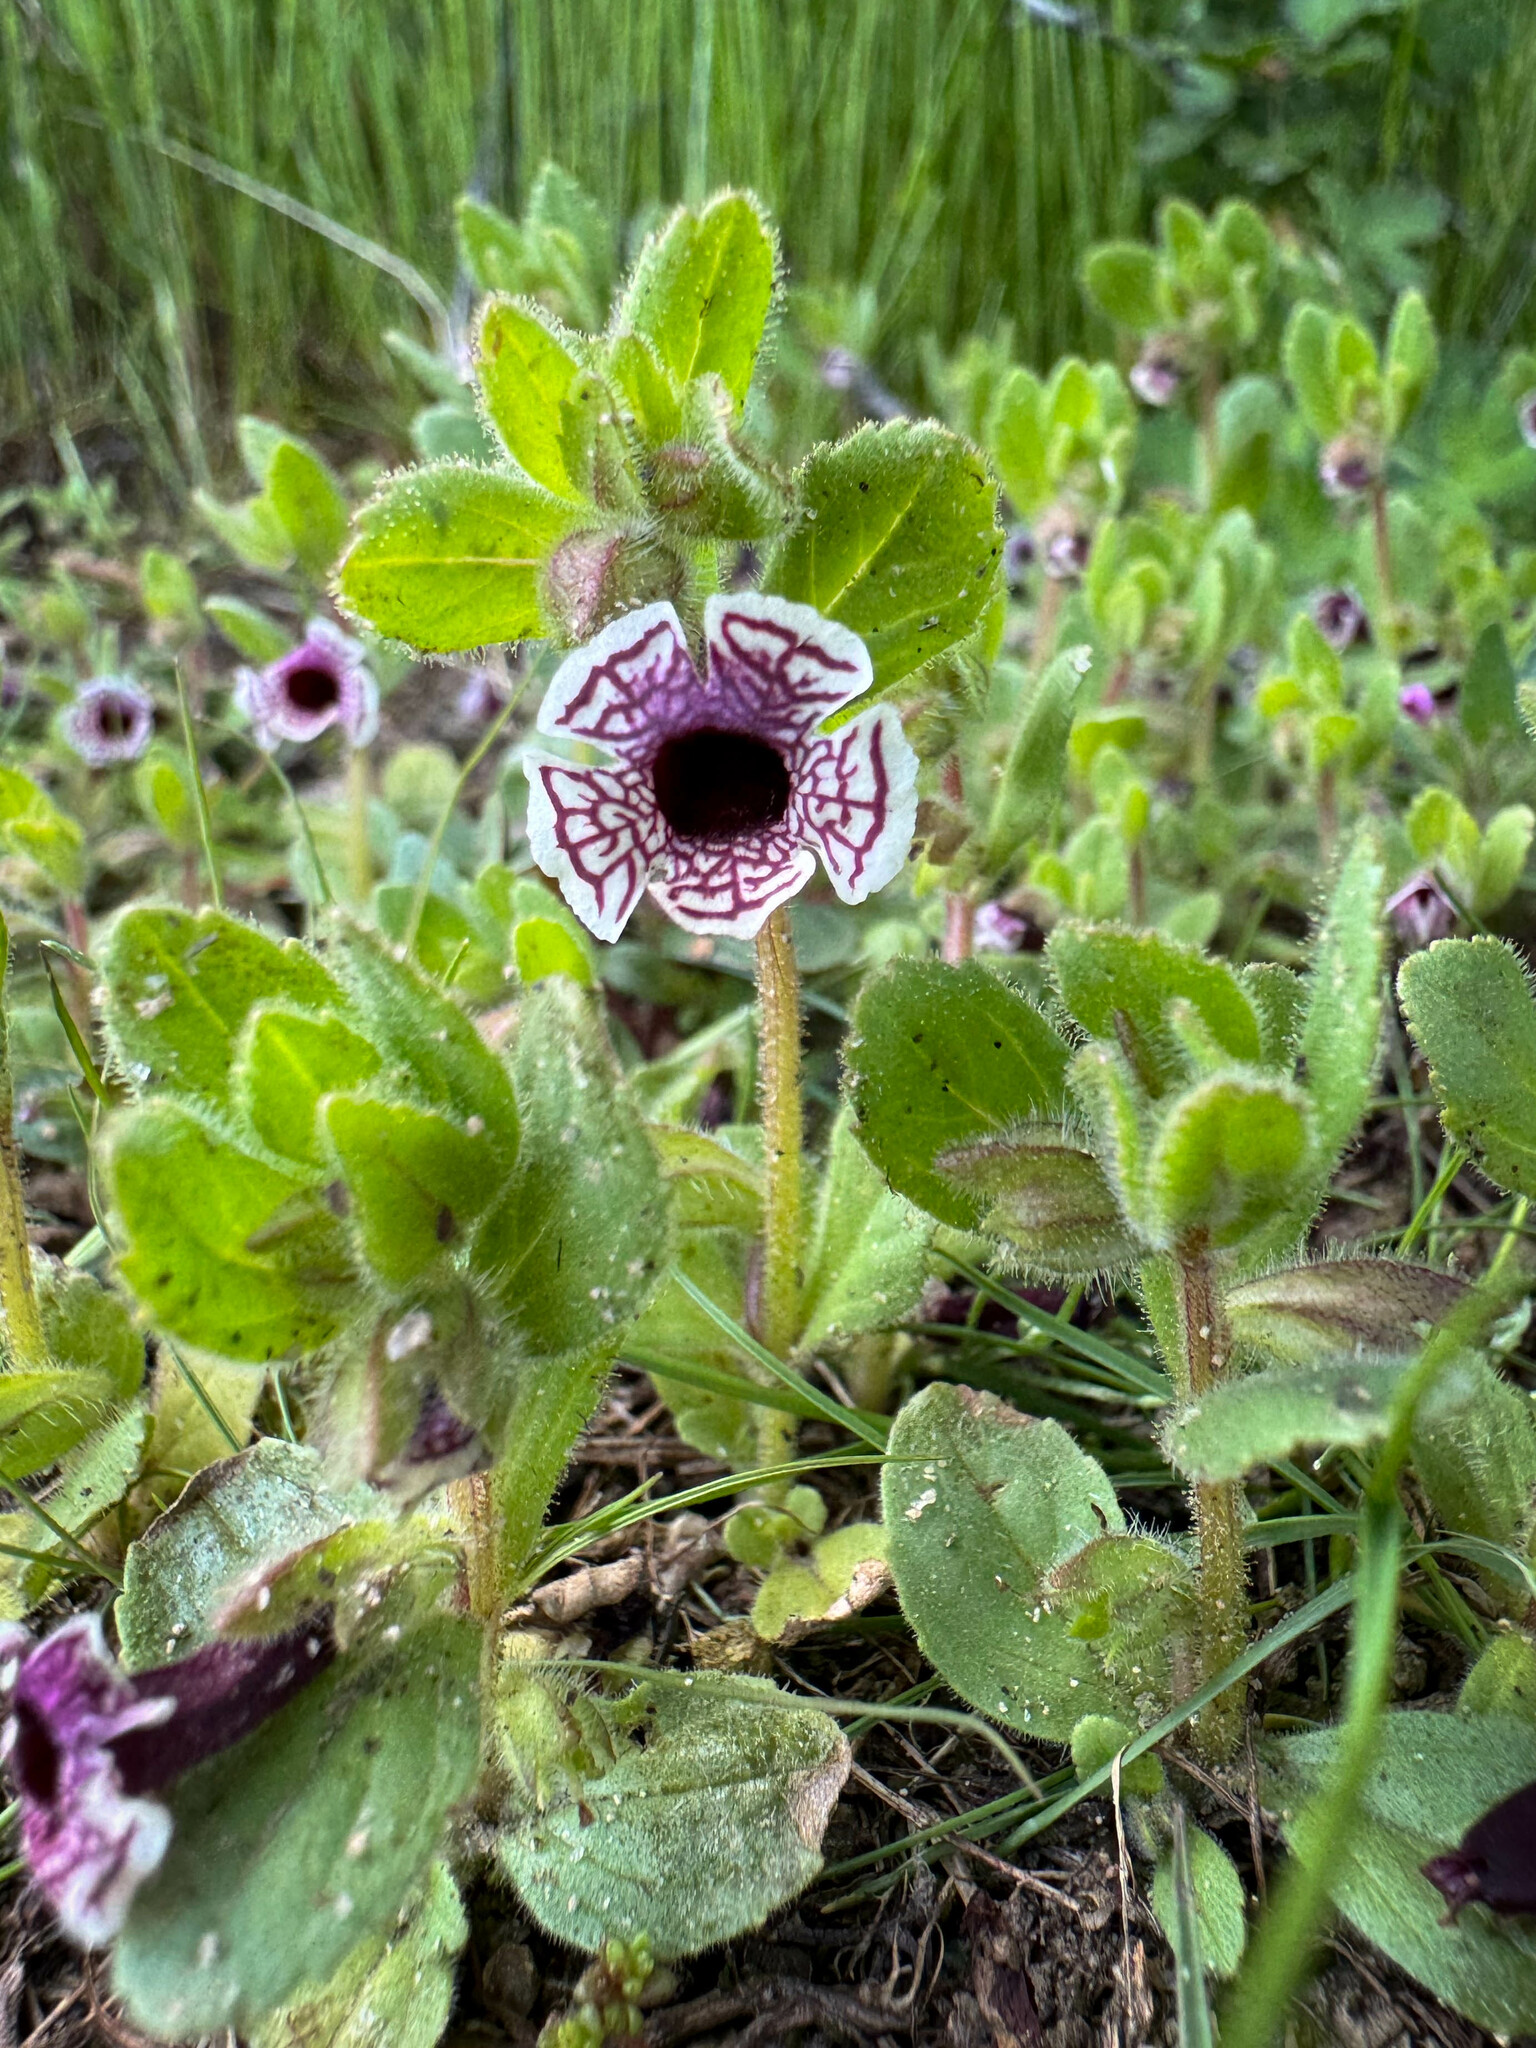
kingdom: Plantae
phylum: Tracheophyta
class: Magnoliopsida
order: Lamiales
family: Phrymaceae
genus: Diplacus
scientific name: Diplacus pictus
